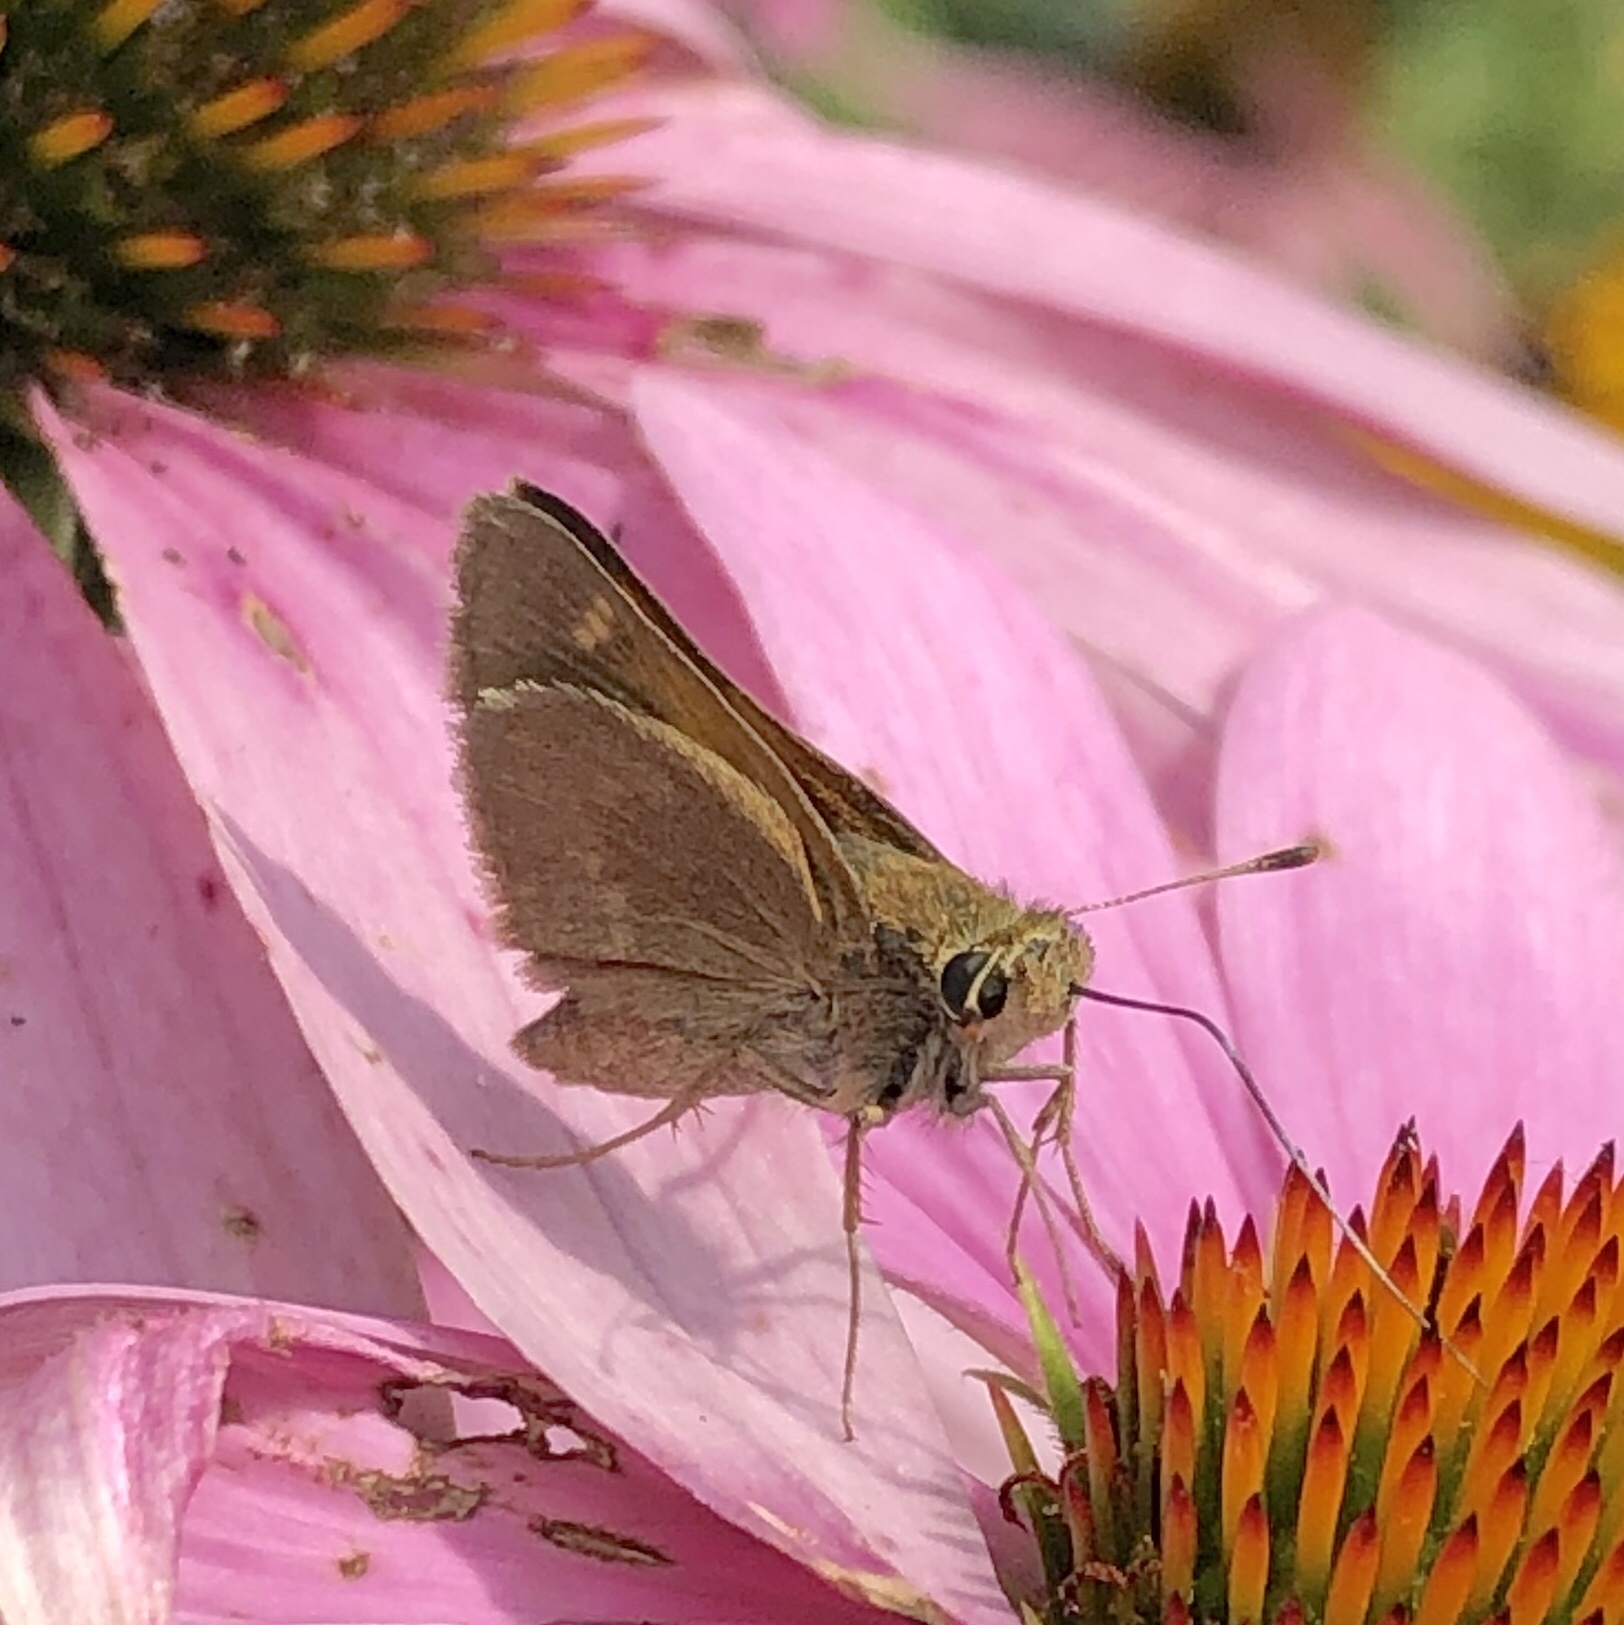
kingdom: Animalia
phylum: Arthropoda
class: Insecta
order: Lepidoptera
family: Hesperiidae
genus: Polites
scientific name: Polites themistocles
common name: Tawny-edged skipper
